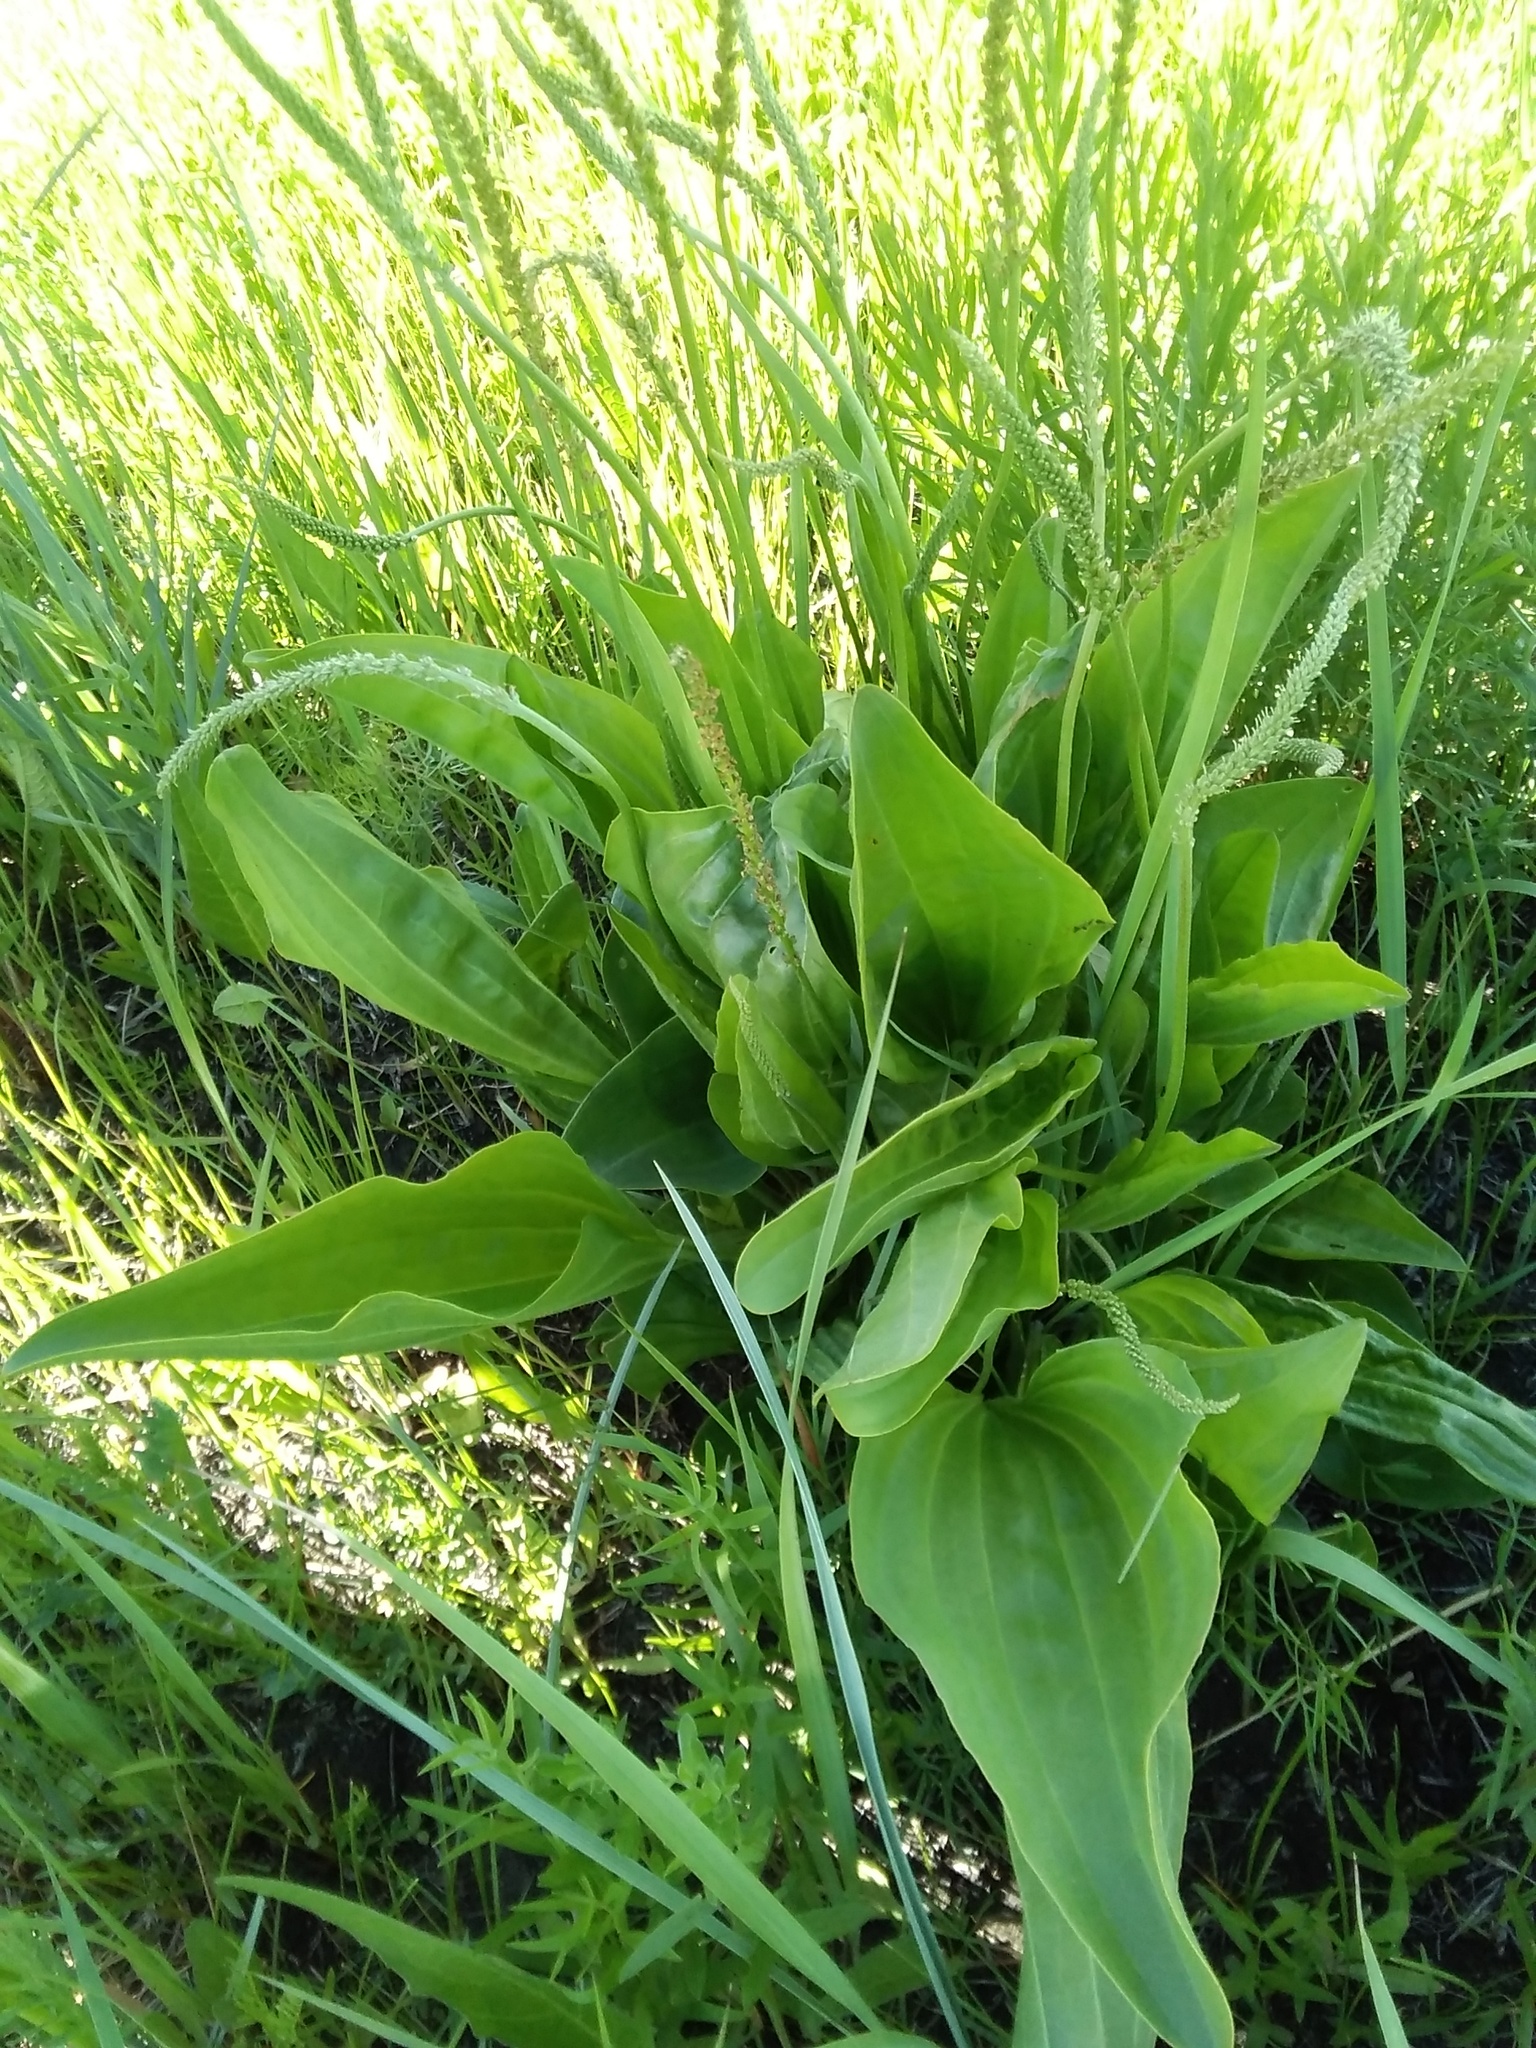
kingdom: Plantae
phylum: Tracheophyta
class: Magnoliopsida
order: Lamiales
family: Plantaginaceae
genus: Plantago
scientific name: Plantago major
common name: Common plantain
